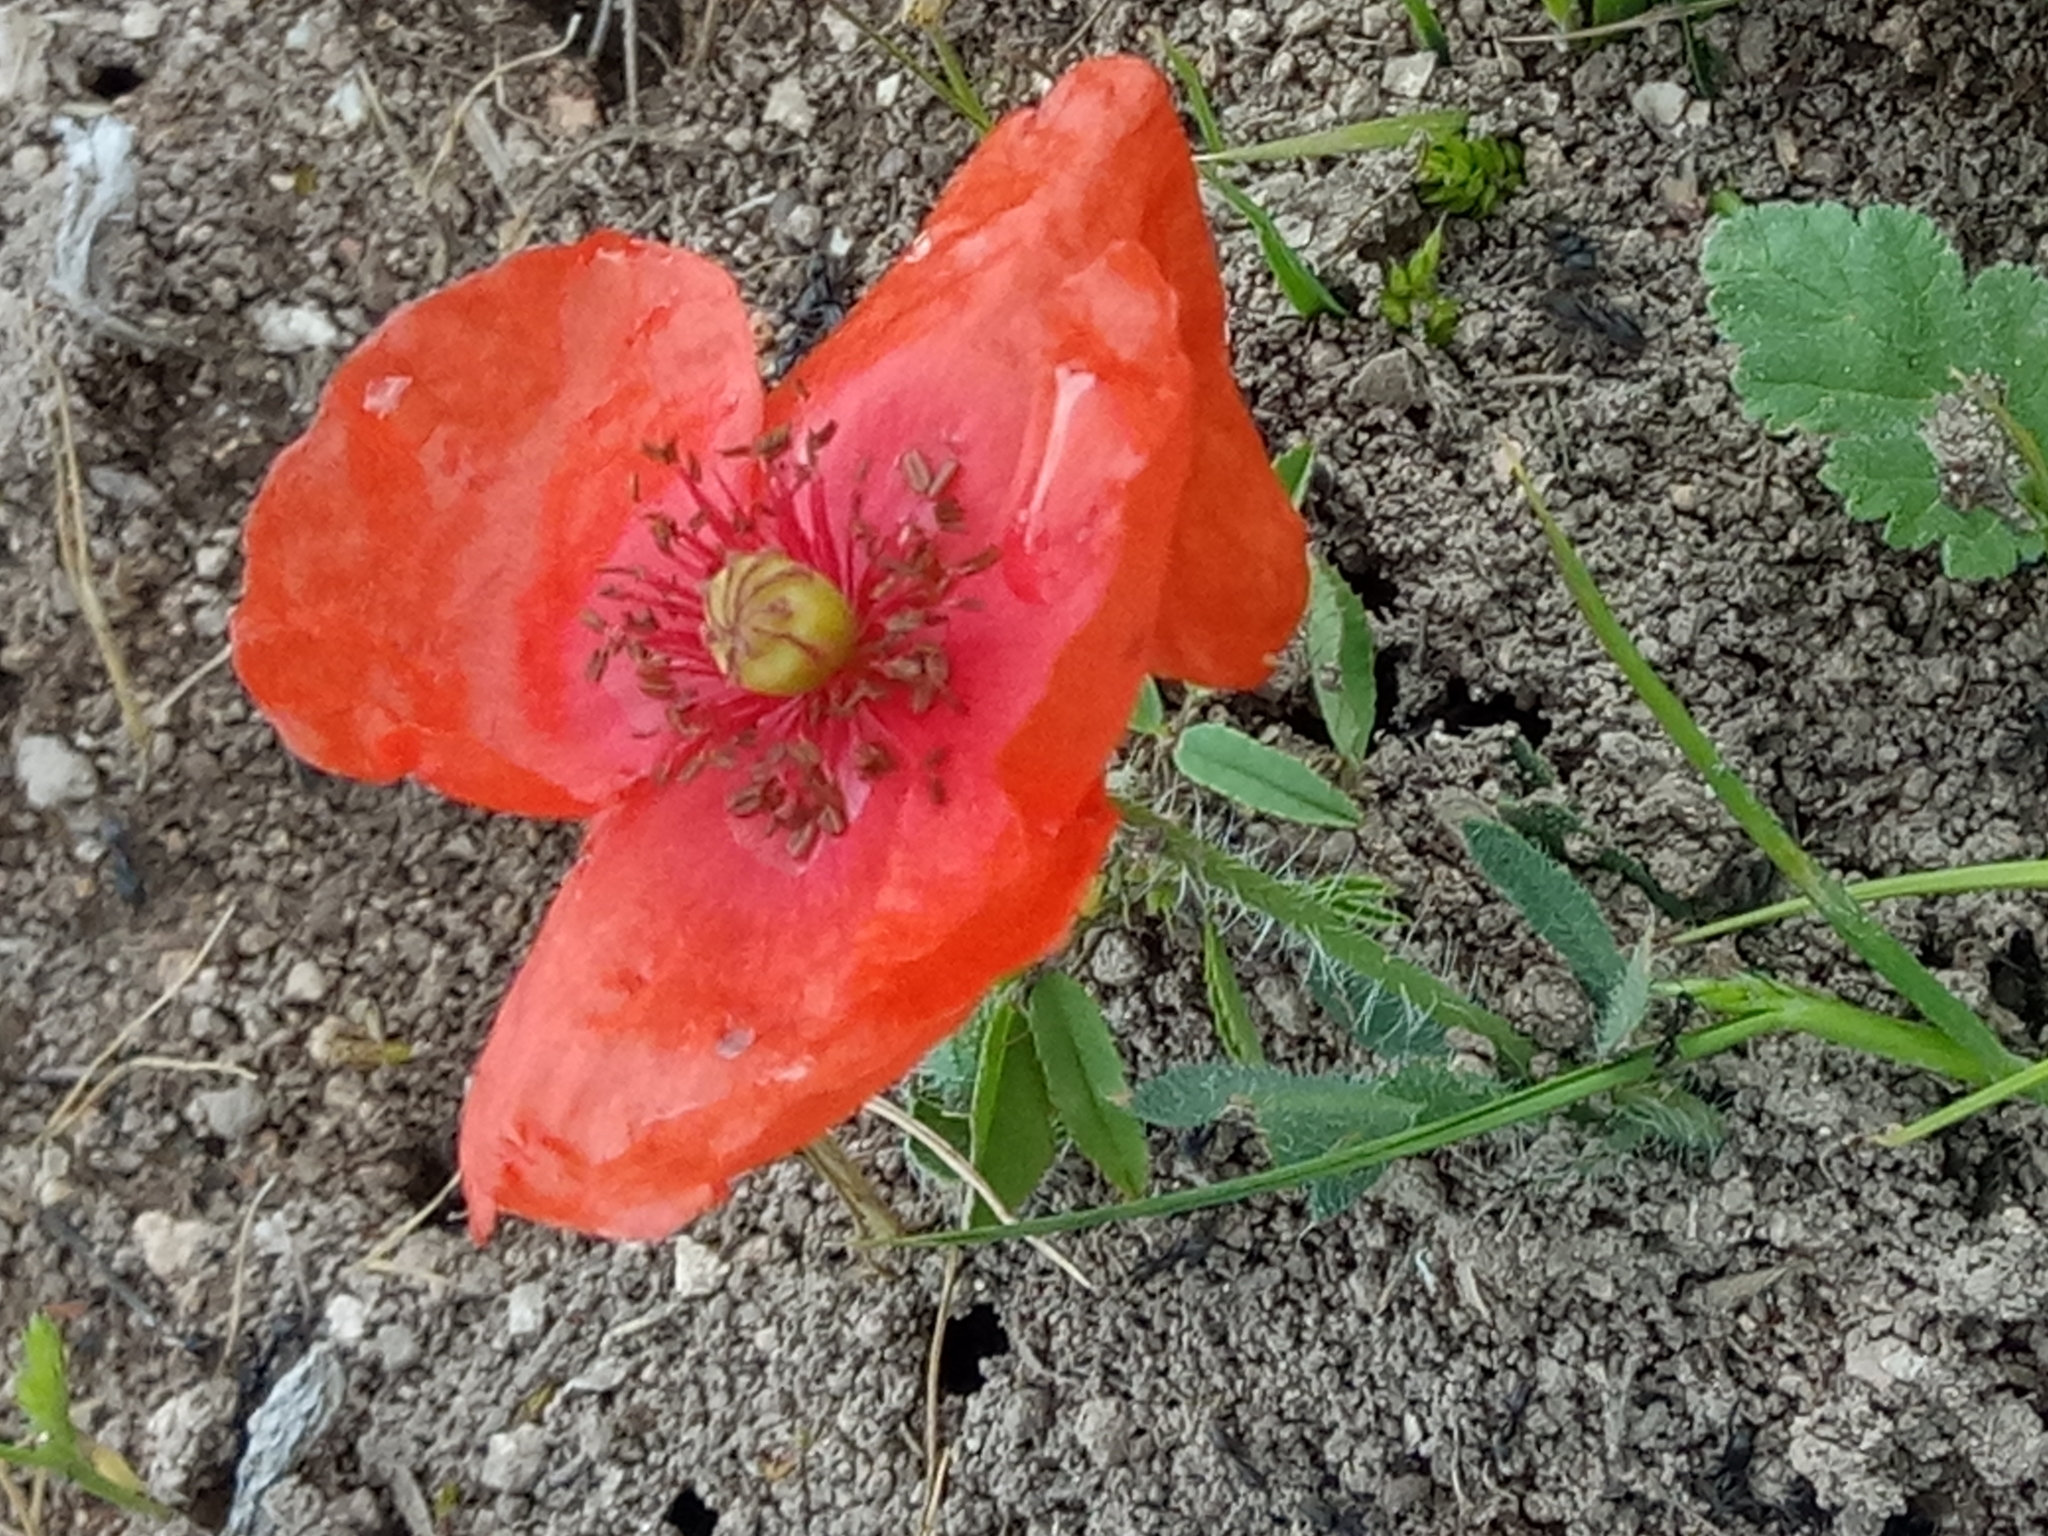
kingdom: Plantae
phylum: Tracheophyta
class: Magnoliopsida
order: Ranunculales
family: Papaveraceae
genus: Papaver
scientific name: Papaver rhoeas
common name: Corn poppy
